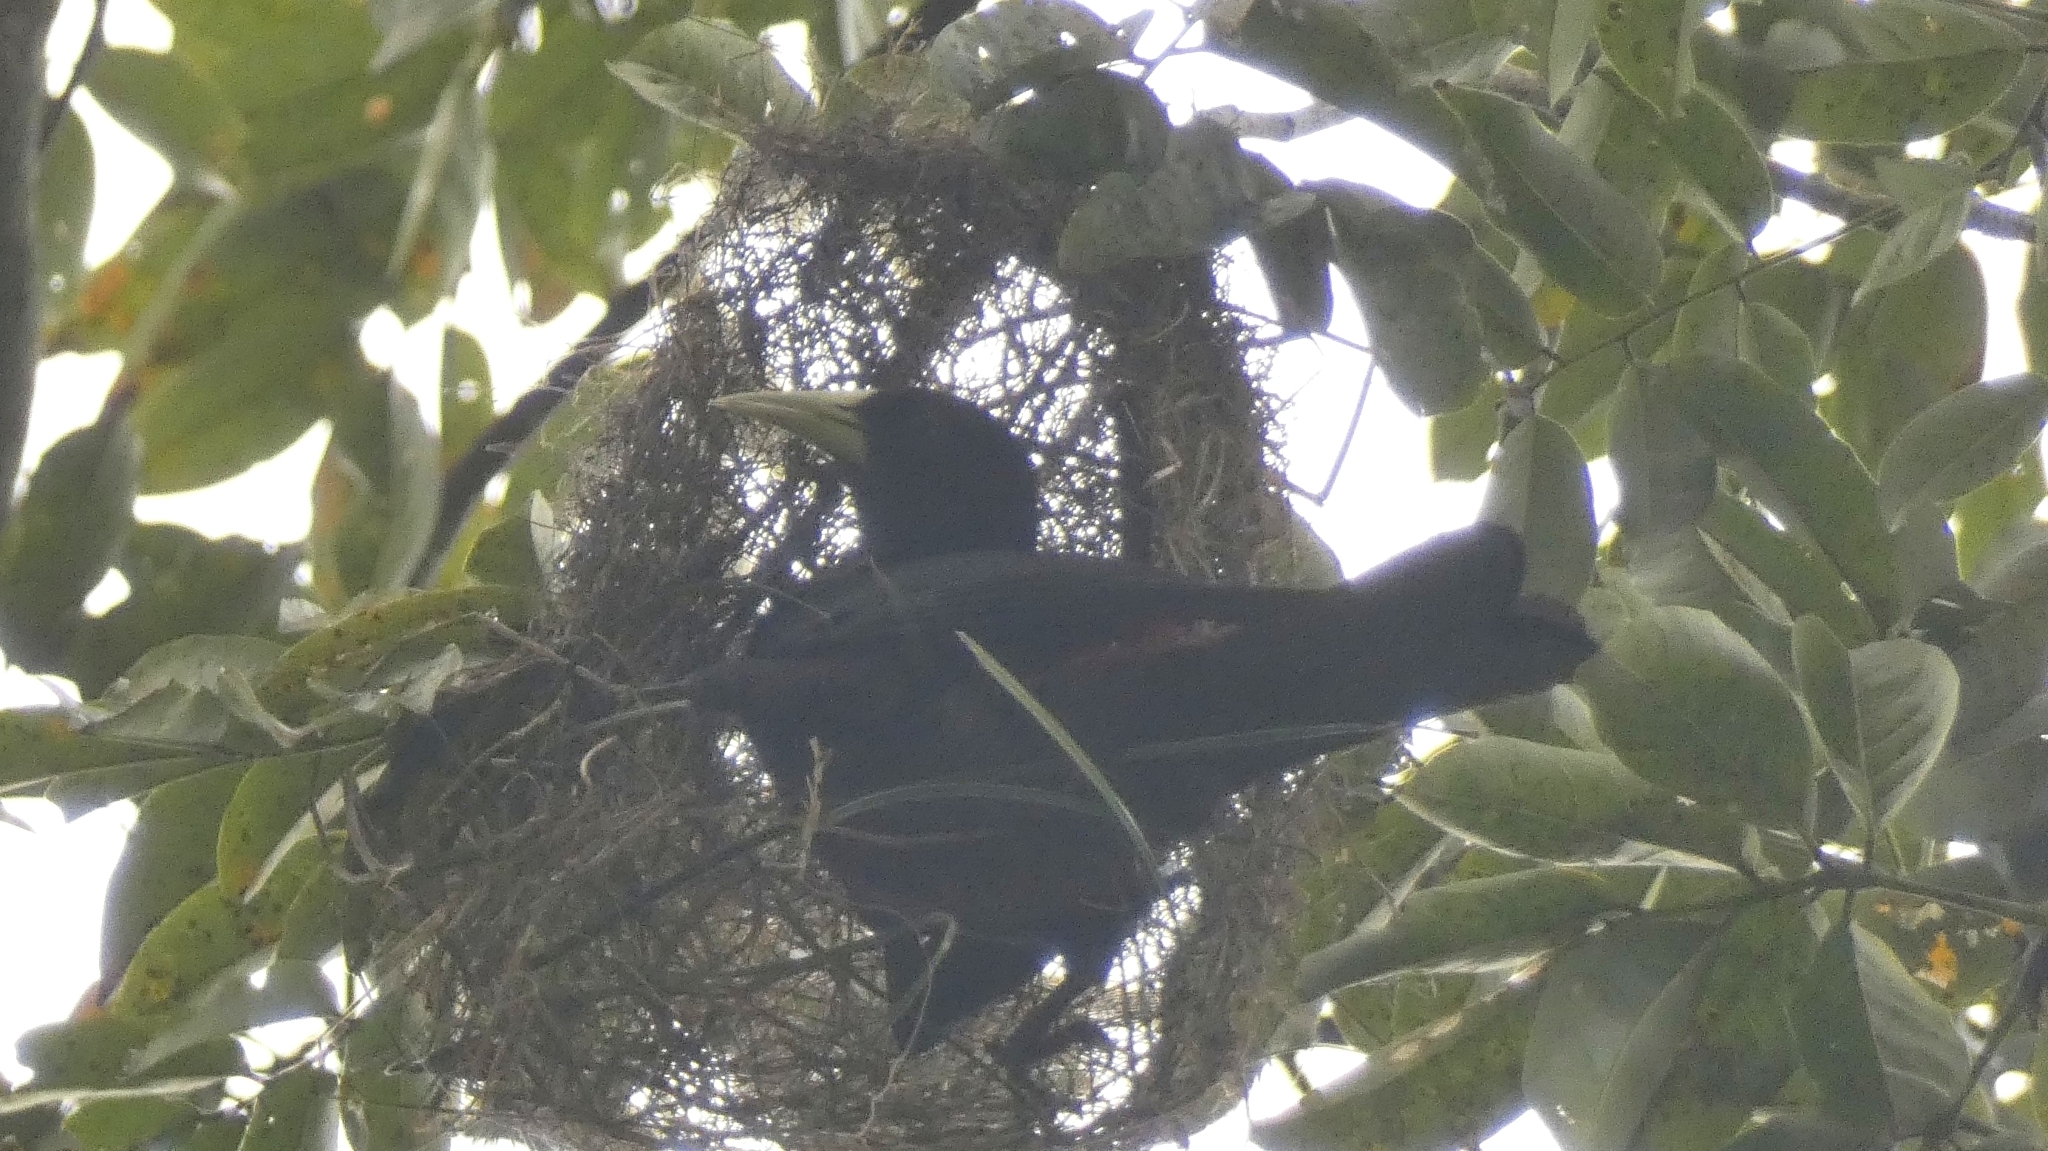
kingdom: Animalia
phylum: Chordata
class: Aves
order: Passeriformes
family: Icteridae
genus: Cacicus
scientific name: Cacicus haemorrhous
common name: Red-rumped cacique
